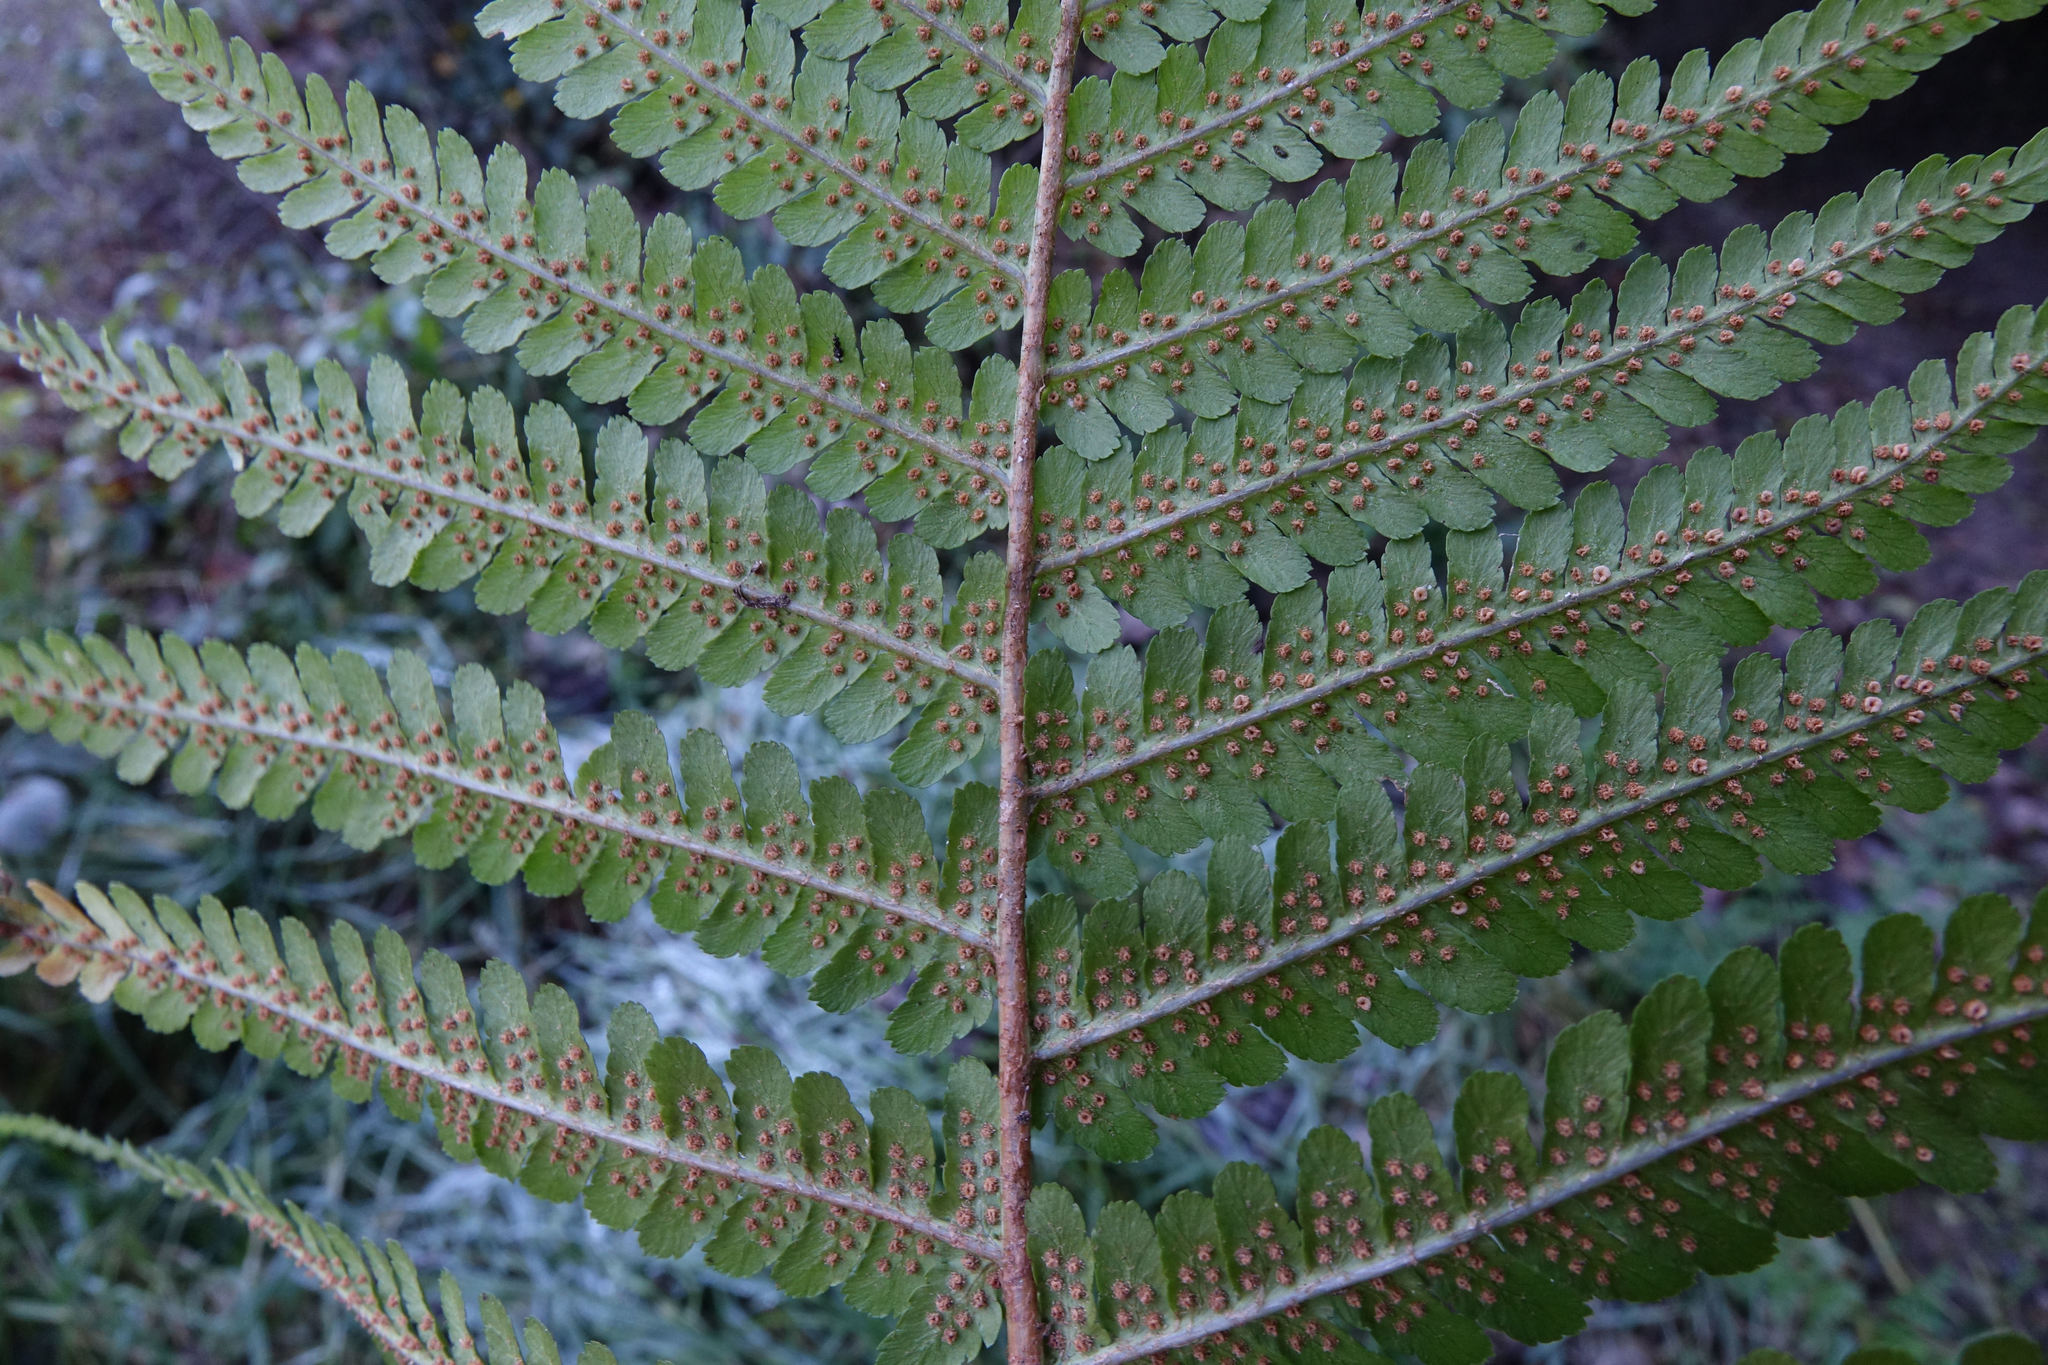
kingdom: Plantae
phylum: Tracheophyta
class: Polypodiopsida
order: Polypodiales
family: Dryopteridaceae
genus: Dryopteris
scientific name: Dryopteris filix-mas
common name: Male fern
